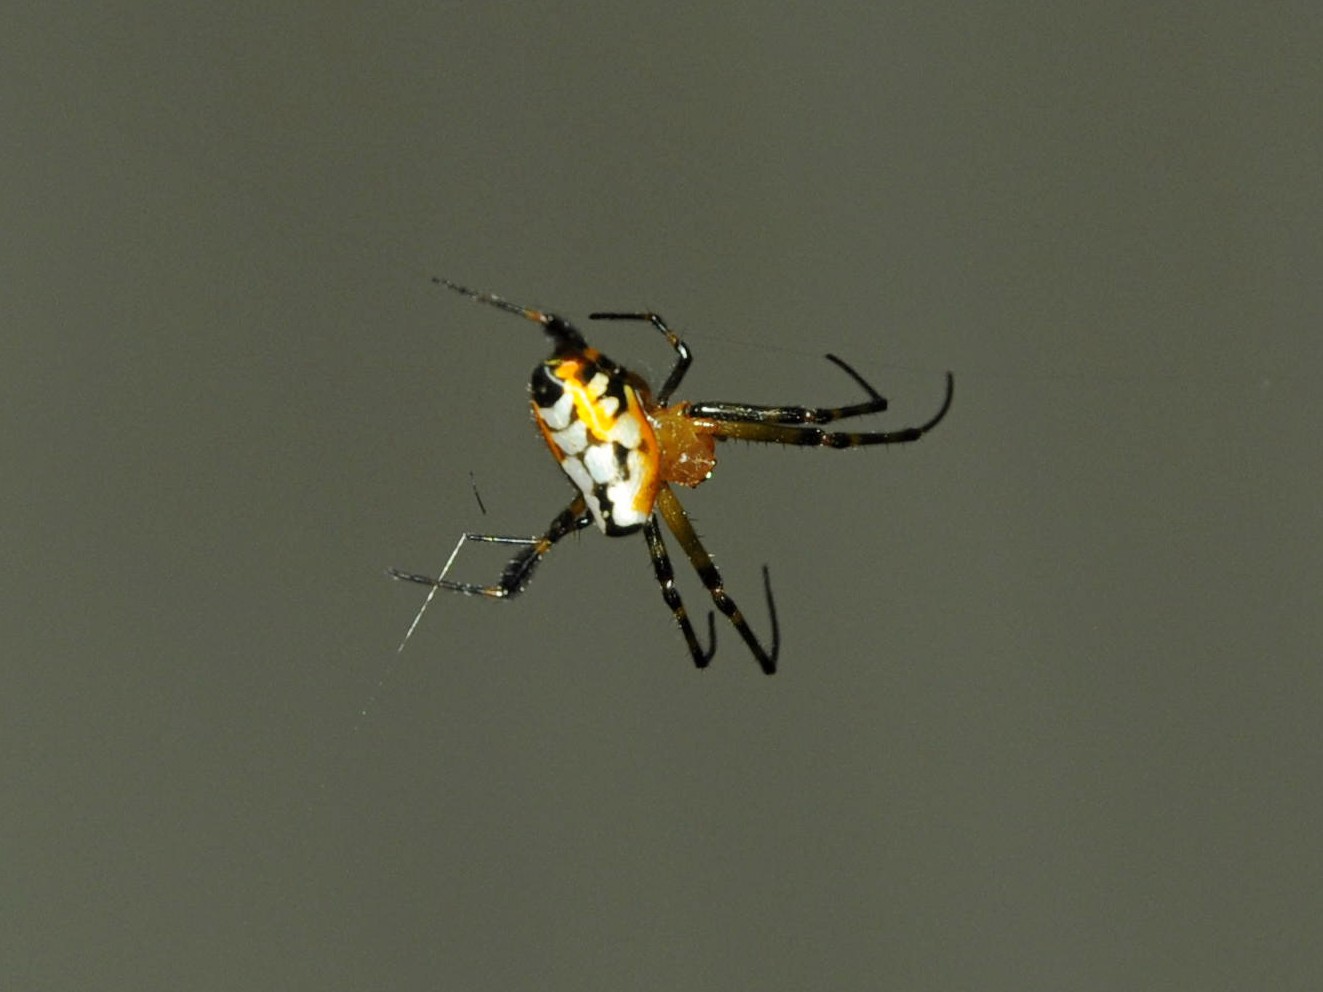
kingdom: Animalia
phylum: Arthropoda
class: Arachnida
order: Araneae
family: Tetragnathidae
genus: Leucauge
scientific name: Leucauge fastigata
